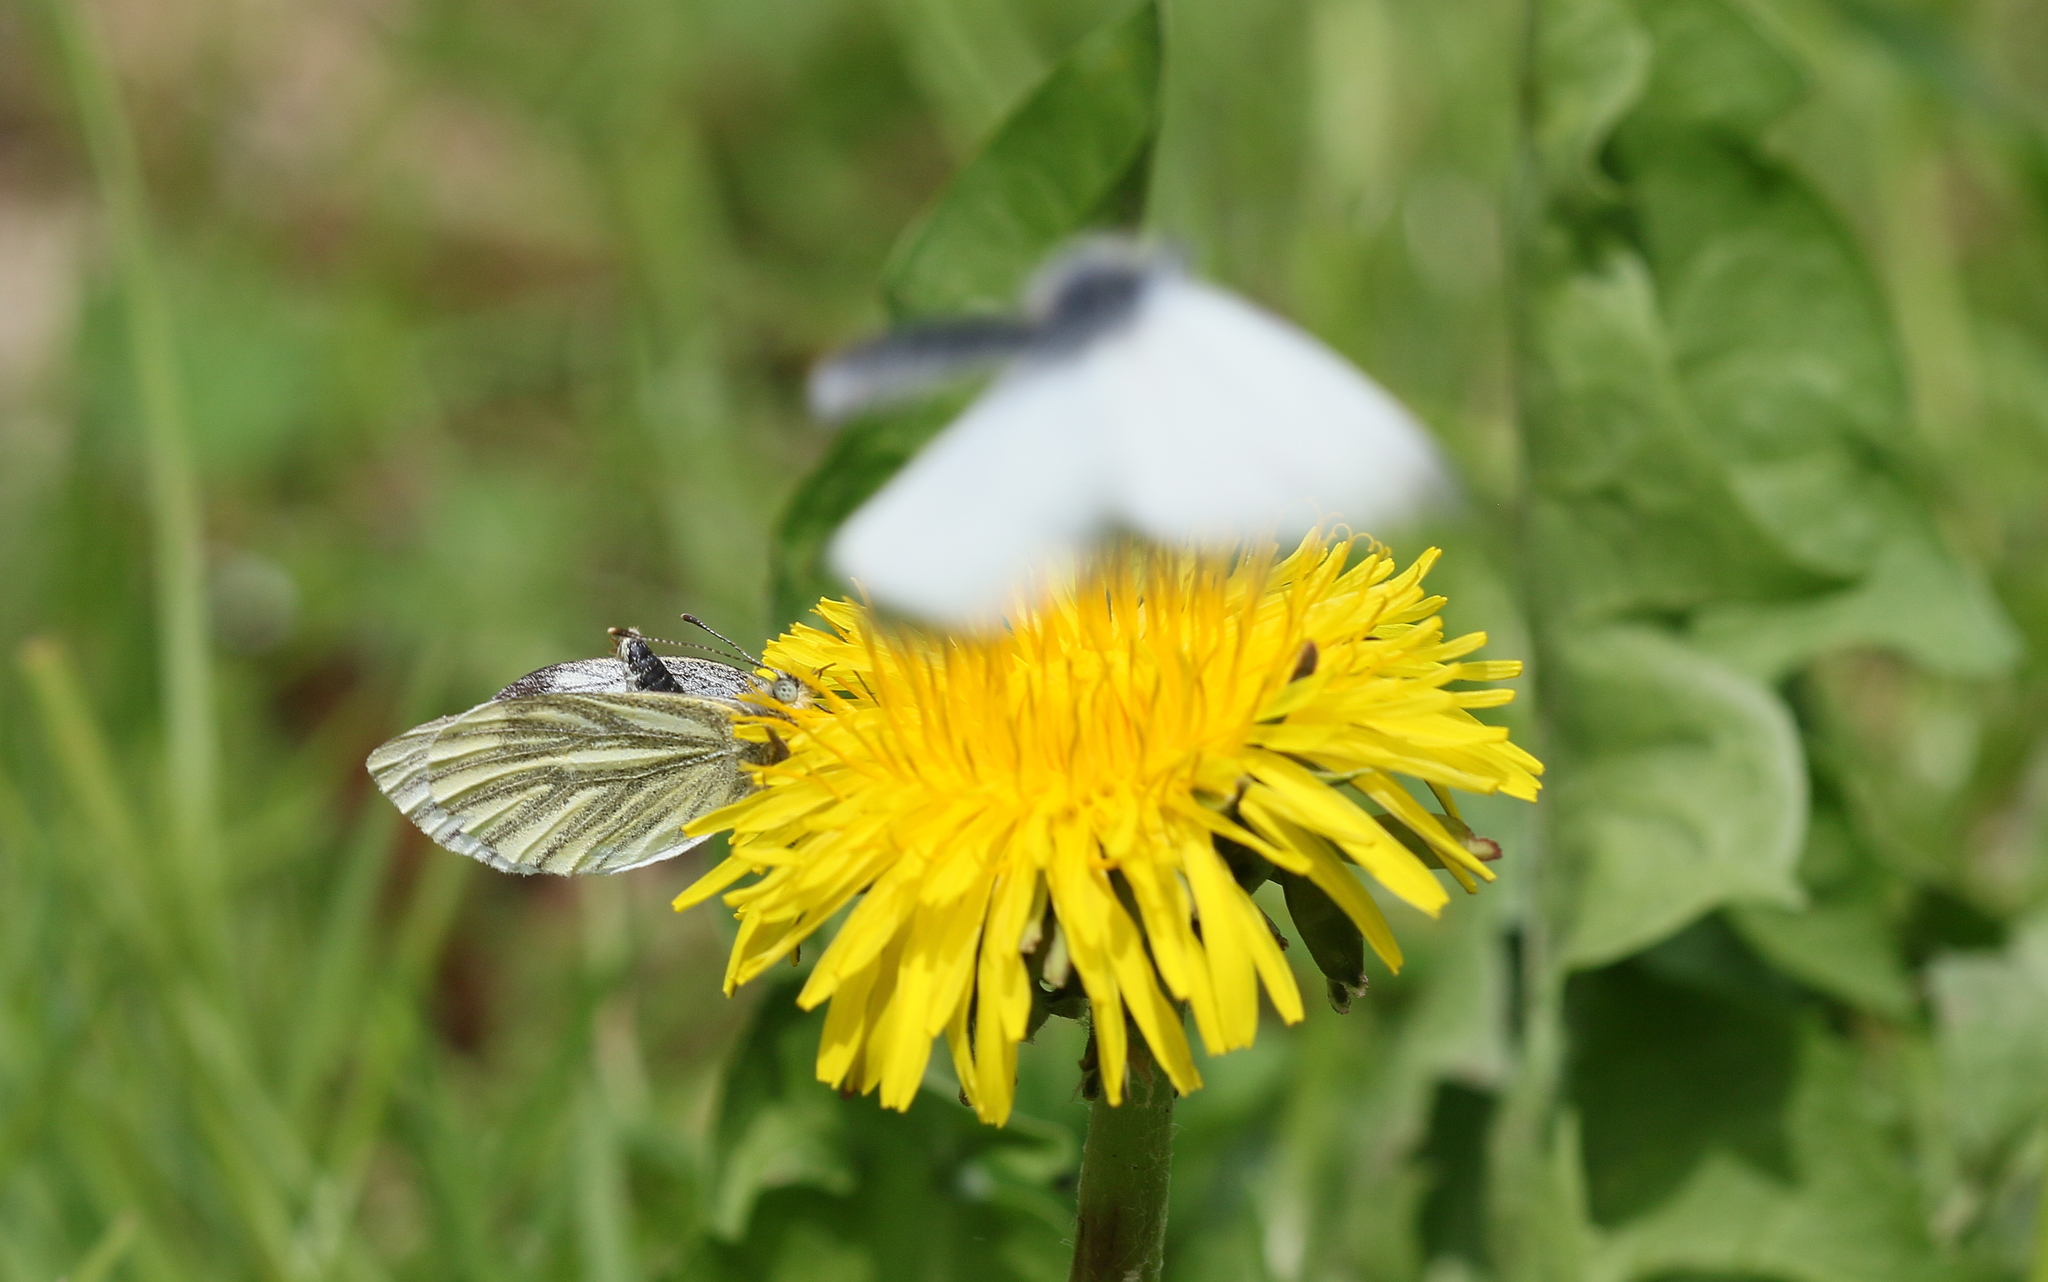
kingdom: Animalia
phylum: Arthropoda
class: Insecta
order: Lepidoptera
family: Pieridae
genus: Pieris
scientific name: Pieris napi
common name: Green-veined white
